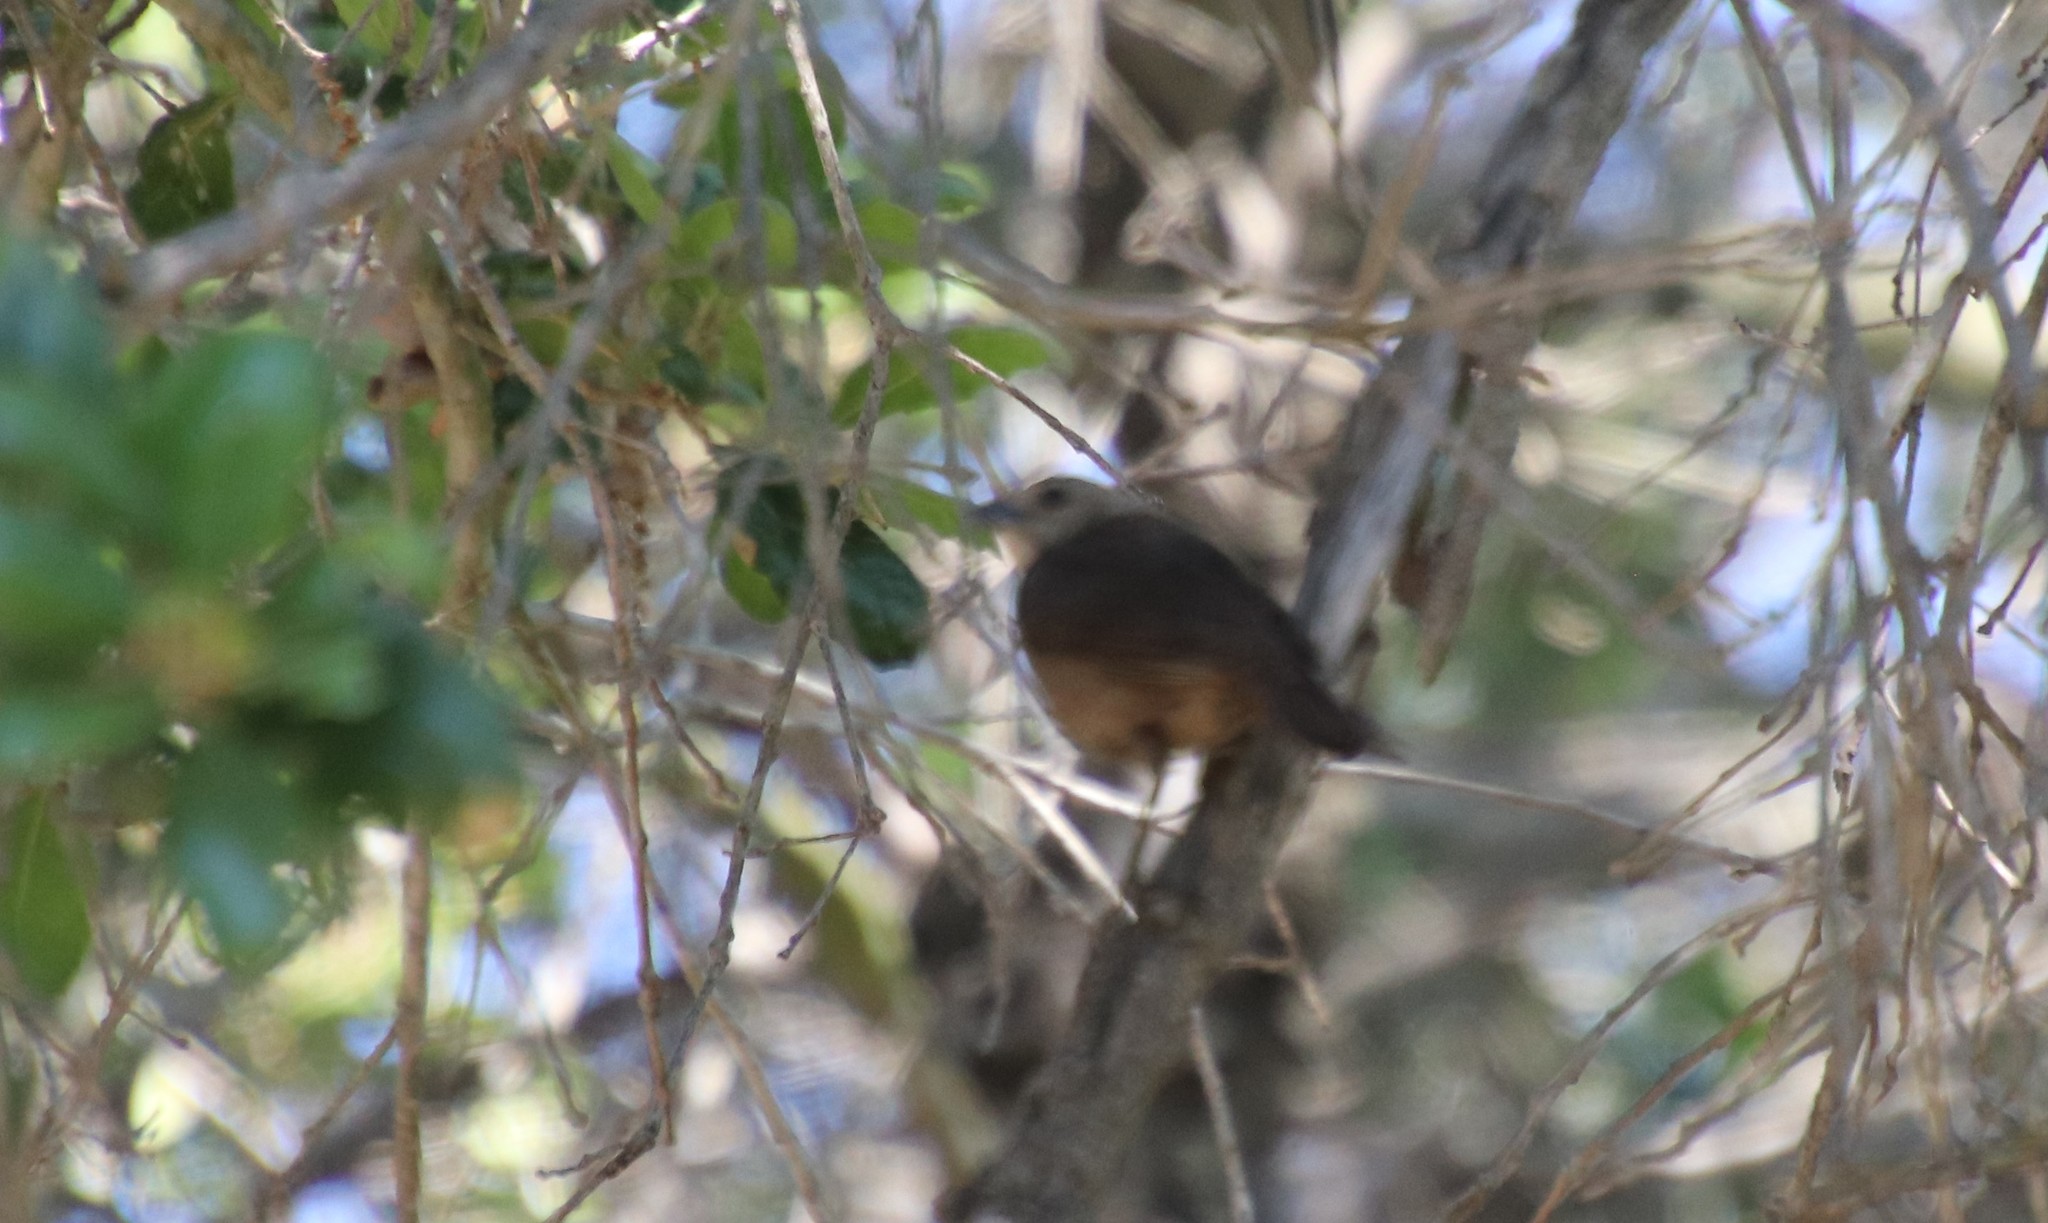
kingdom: Animalia
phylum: Chordata
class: Aves
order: Passeriformes
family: Icteridae
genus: Molothrus
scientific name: Molothrus ater
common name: Brown-headed cowbird
